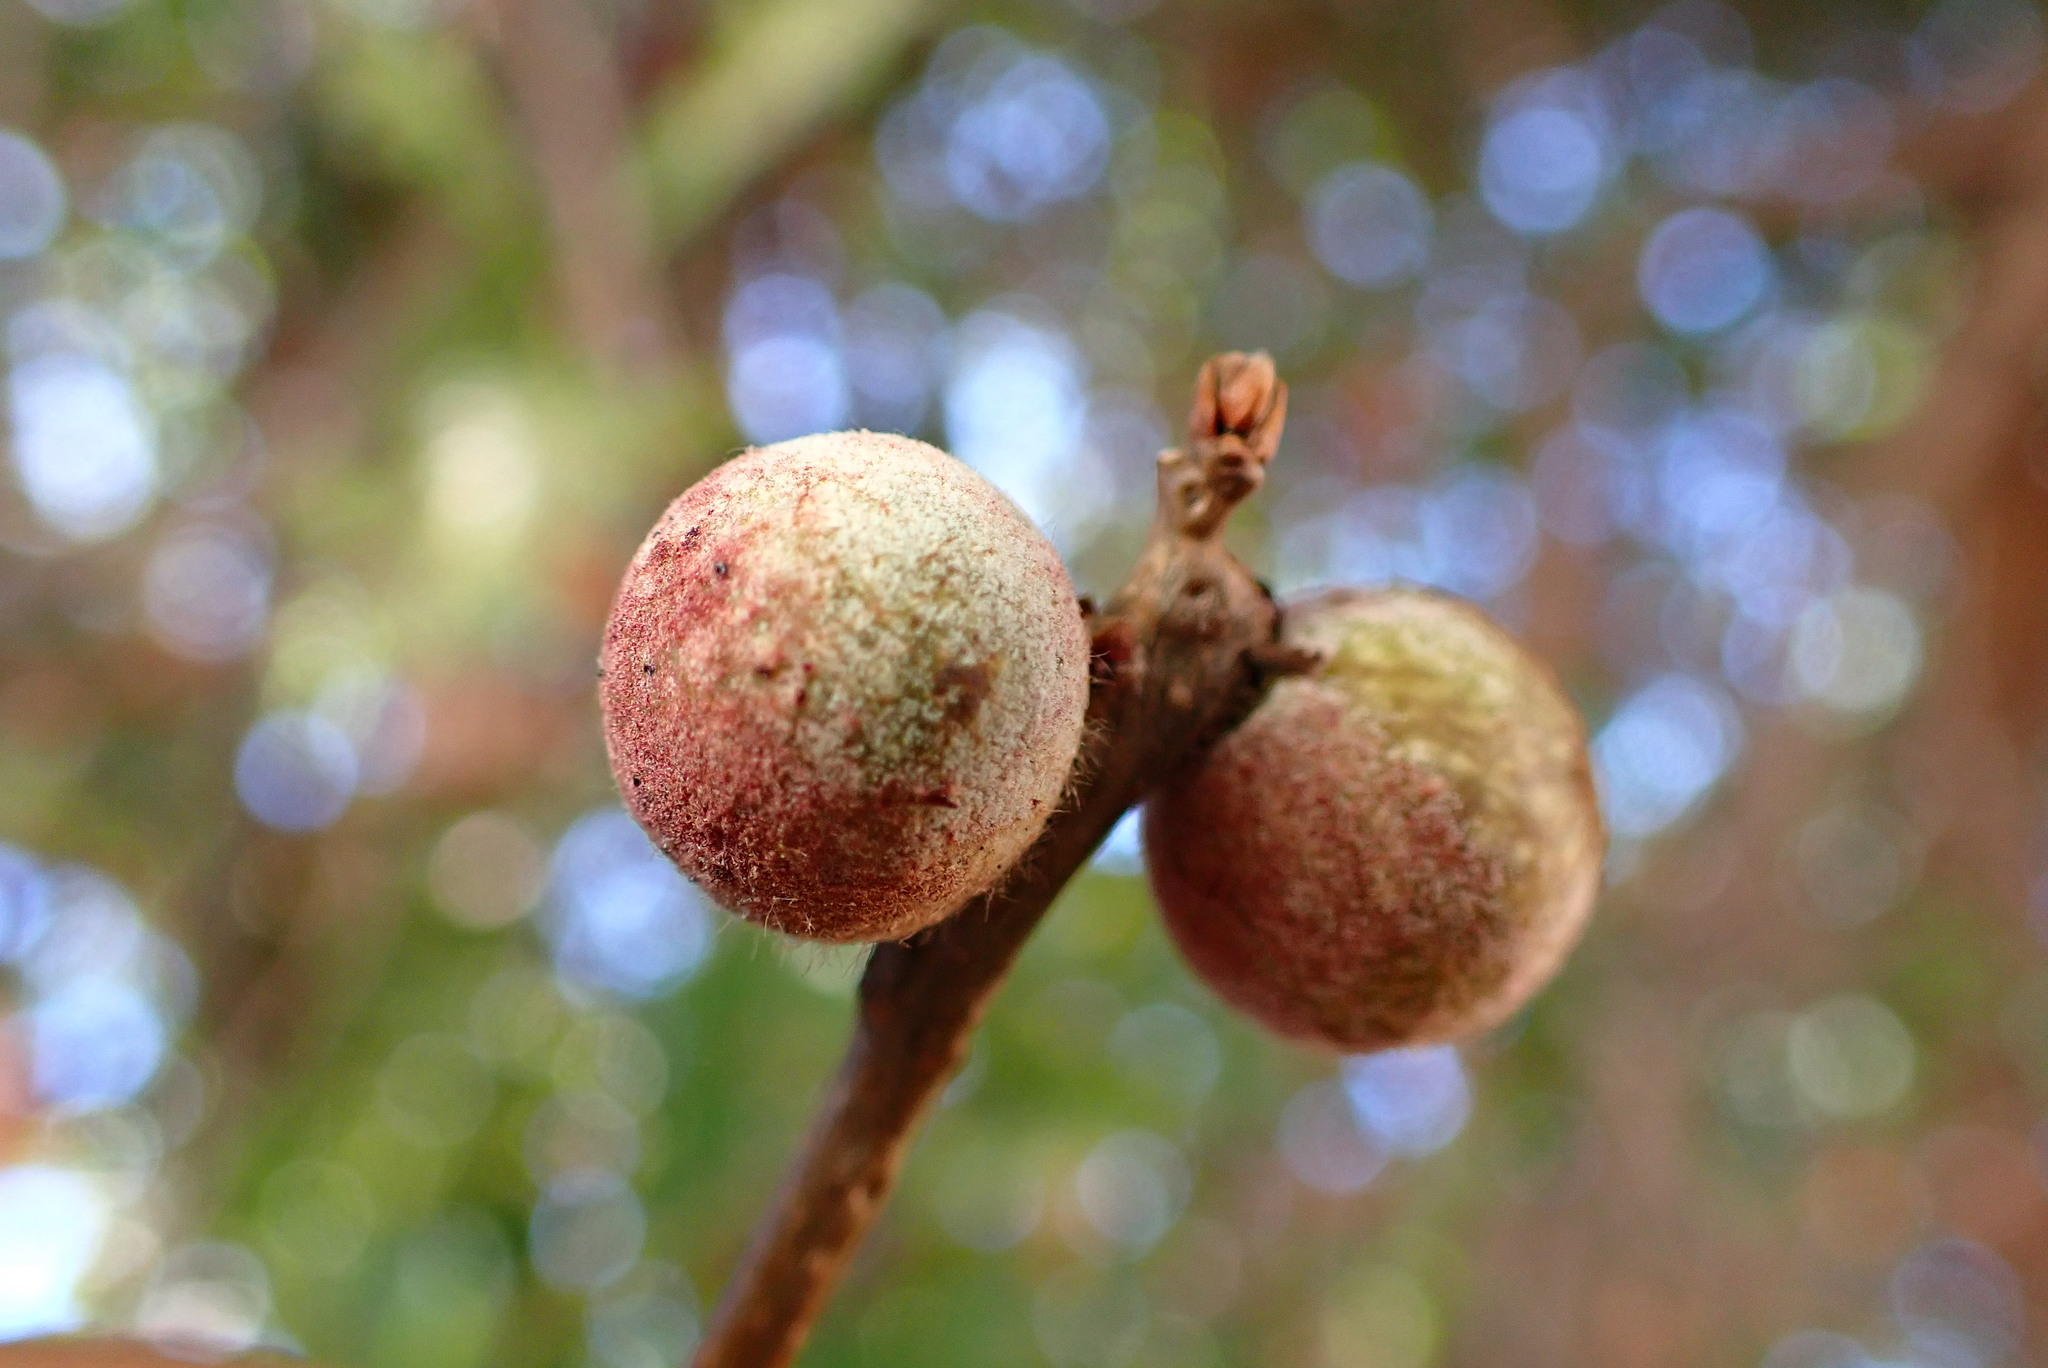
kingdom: Animalia
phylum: Arthropoda
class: Insecta
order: Hymenoptera
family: Cynipidae
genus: Burnettweldia
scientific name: Burnettweldia
